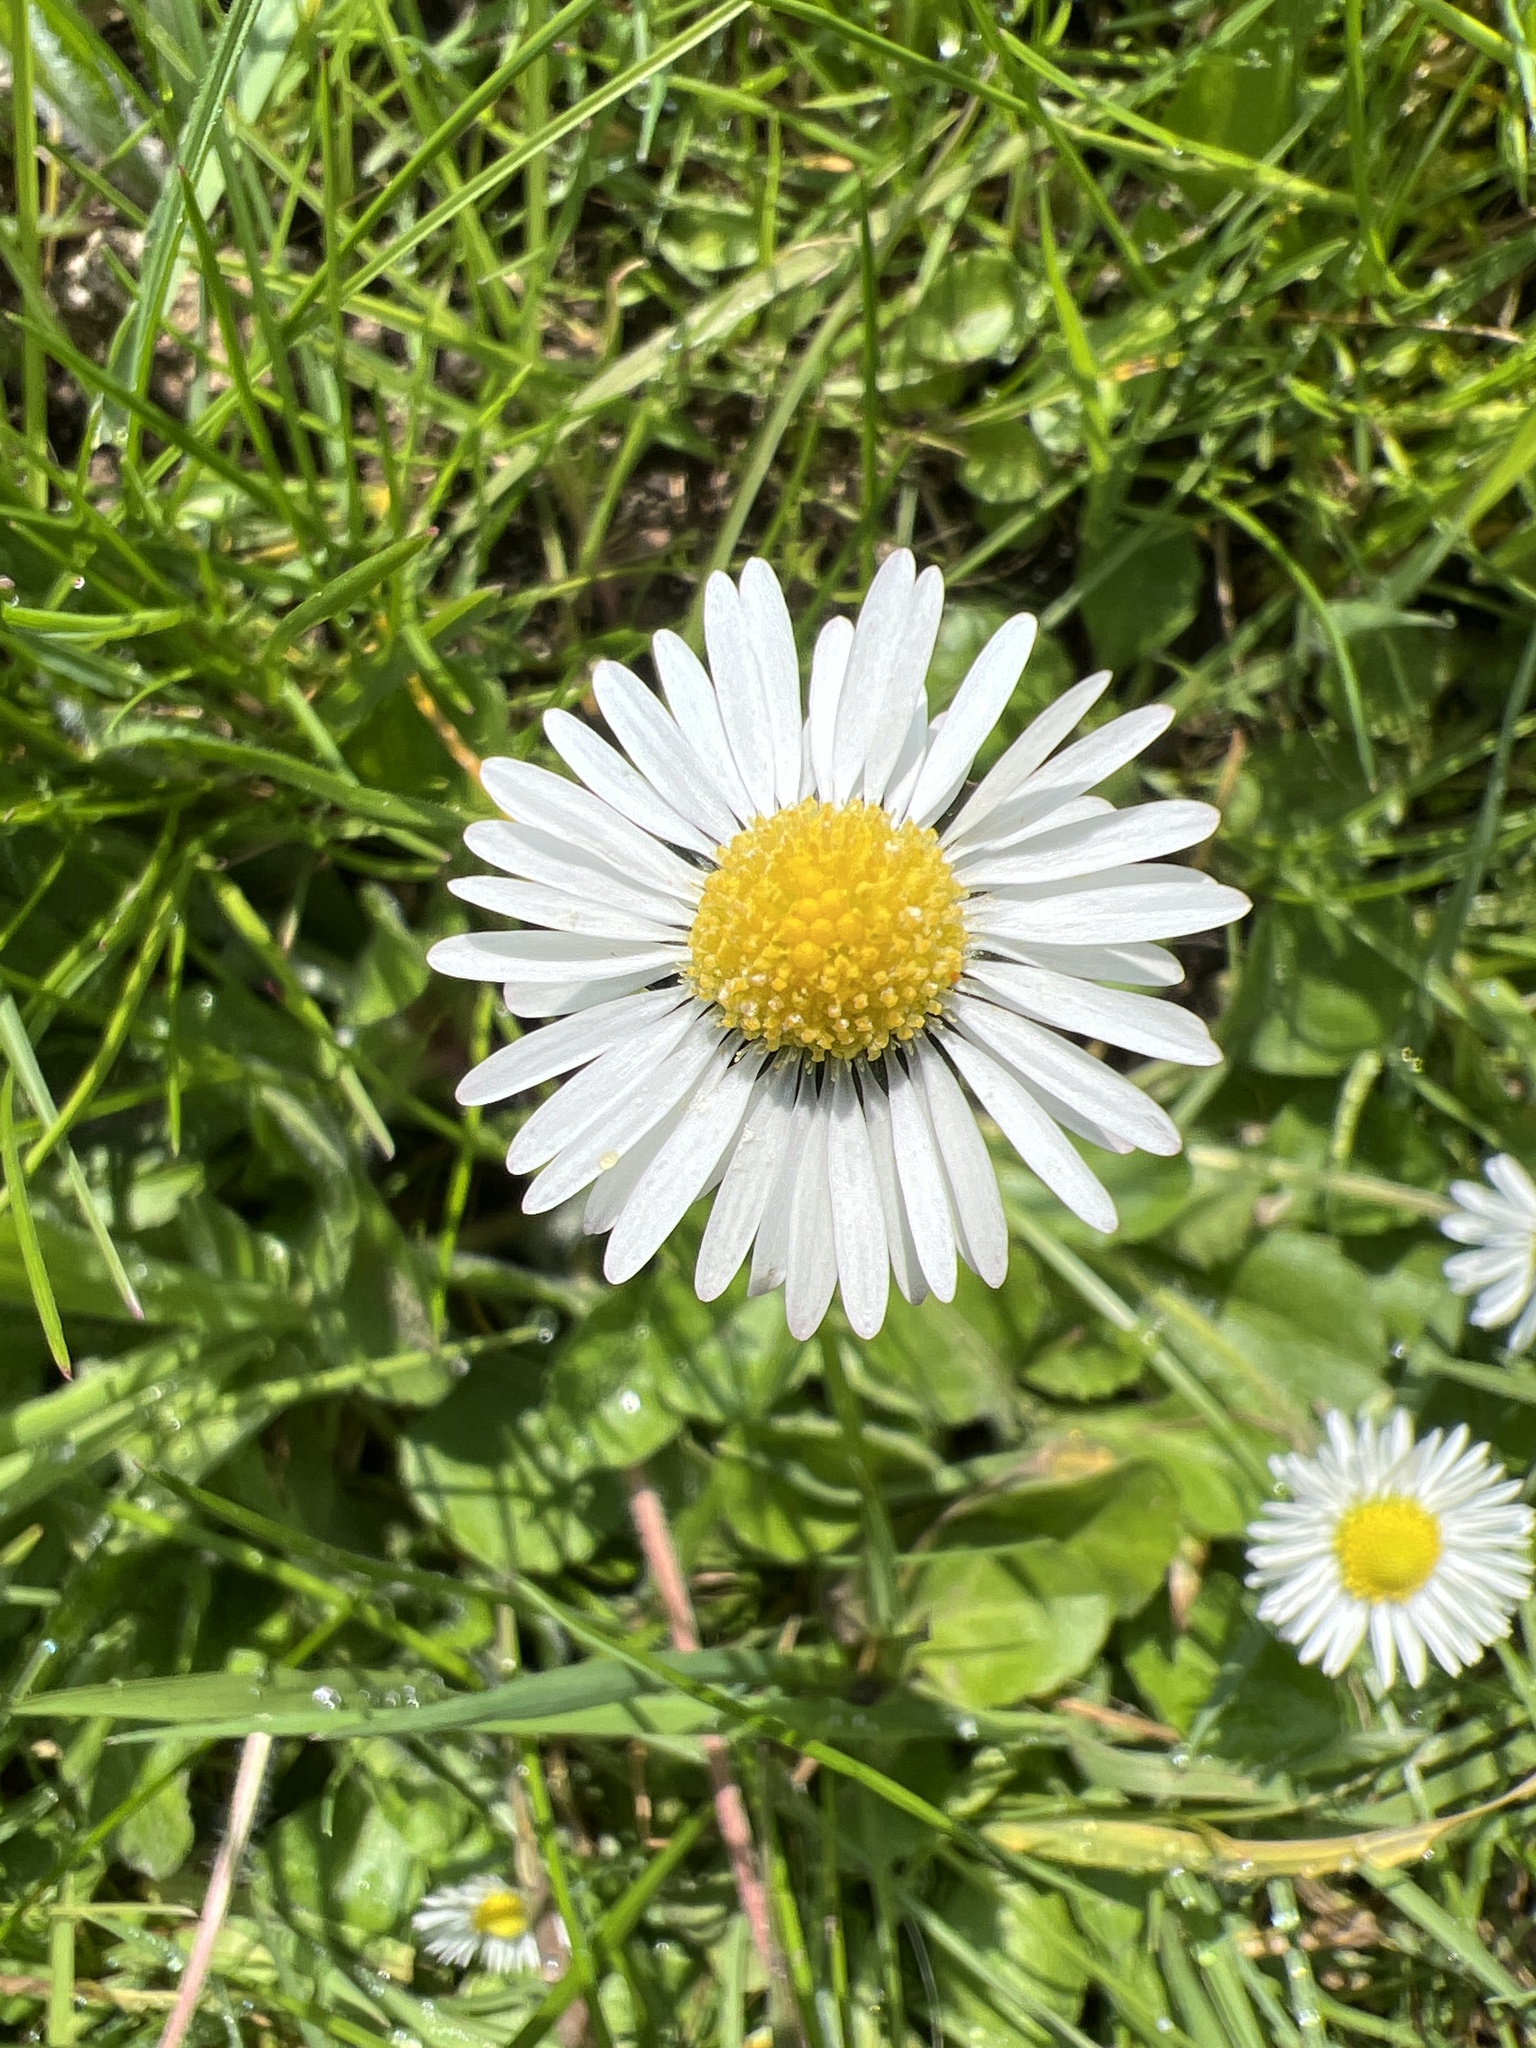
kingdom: Plantae
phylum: Tracheophyta
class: Magnoliopsida
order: Asterales
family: Asteraceae
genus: Bellis
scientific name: Bellis perennis
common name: Lawndaisy
